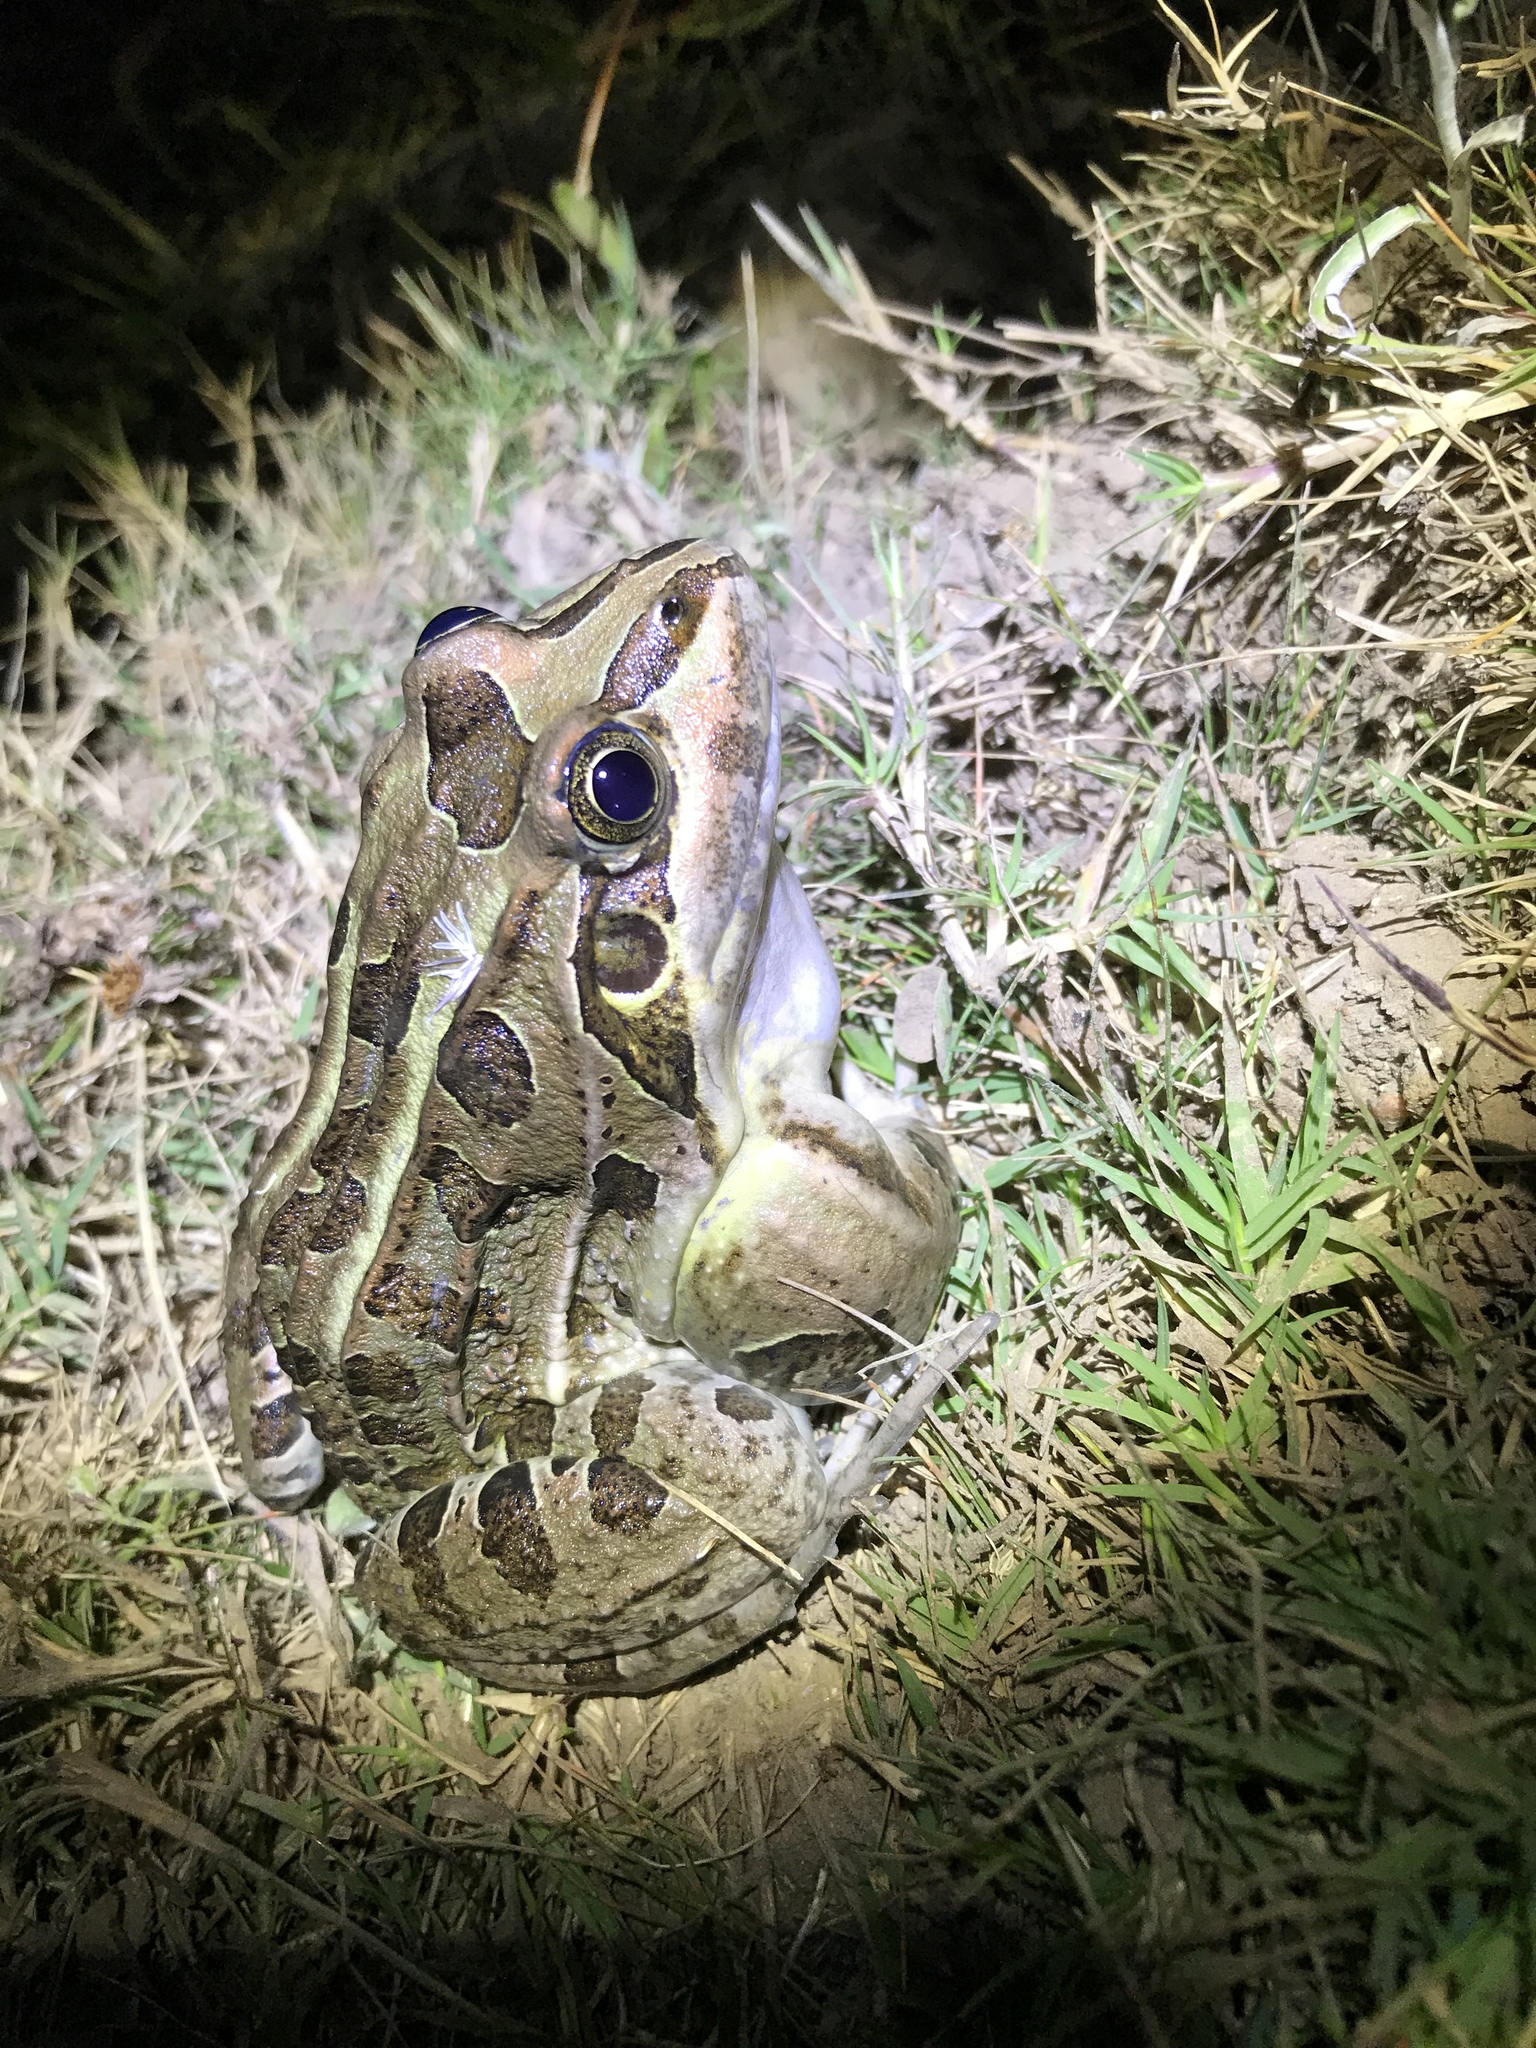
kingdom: Animalia
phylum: Chordata
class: Amphibia
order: Anura
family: Leptodactylidae
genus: Leptodactylus
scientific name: Leptodactylus luctator
